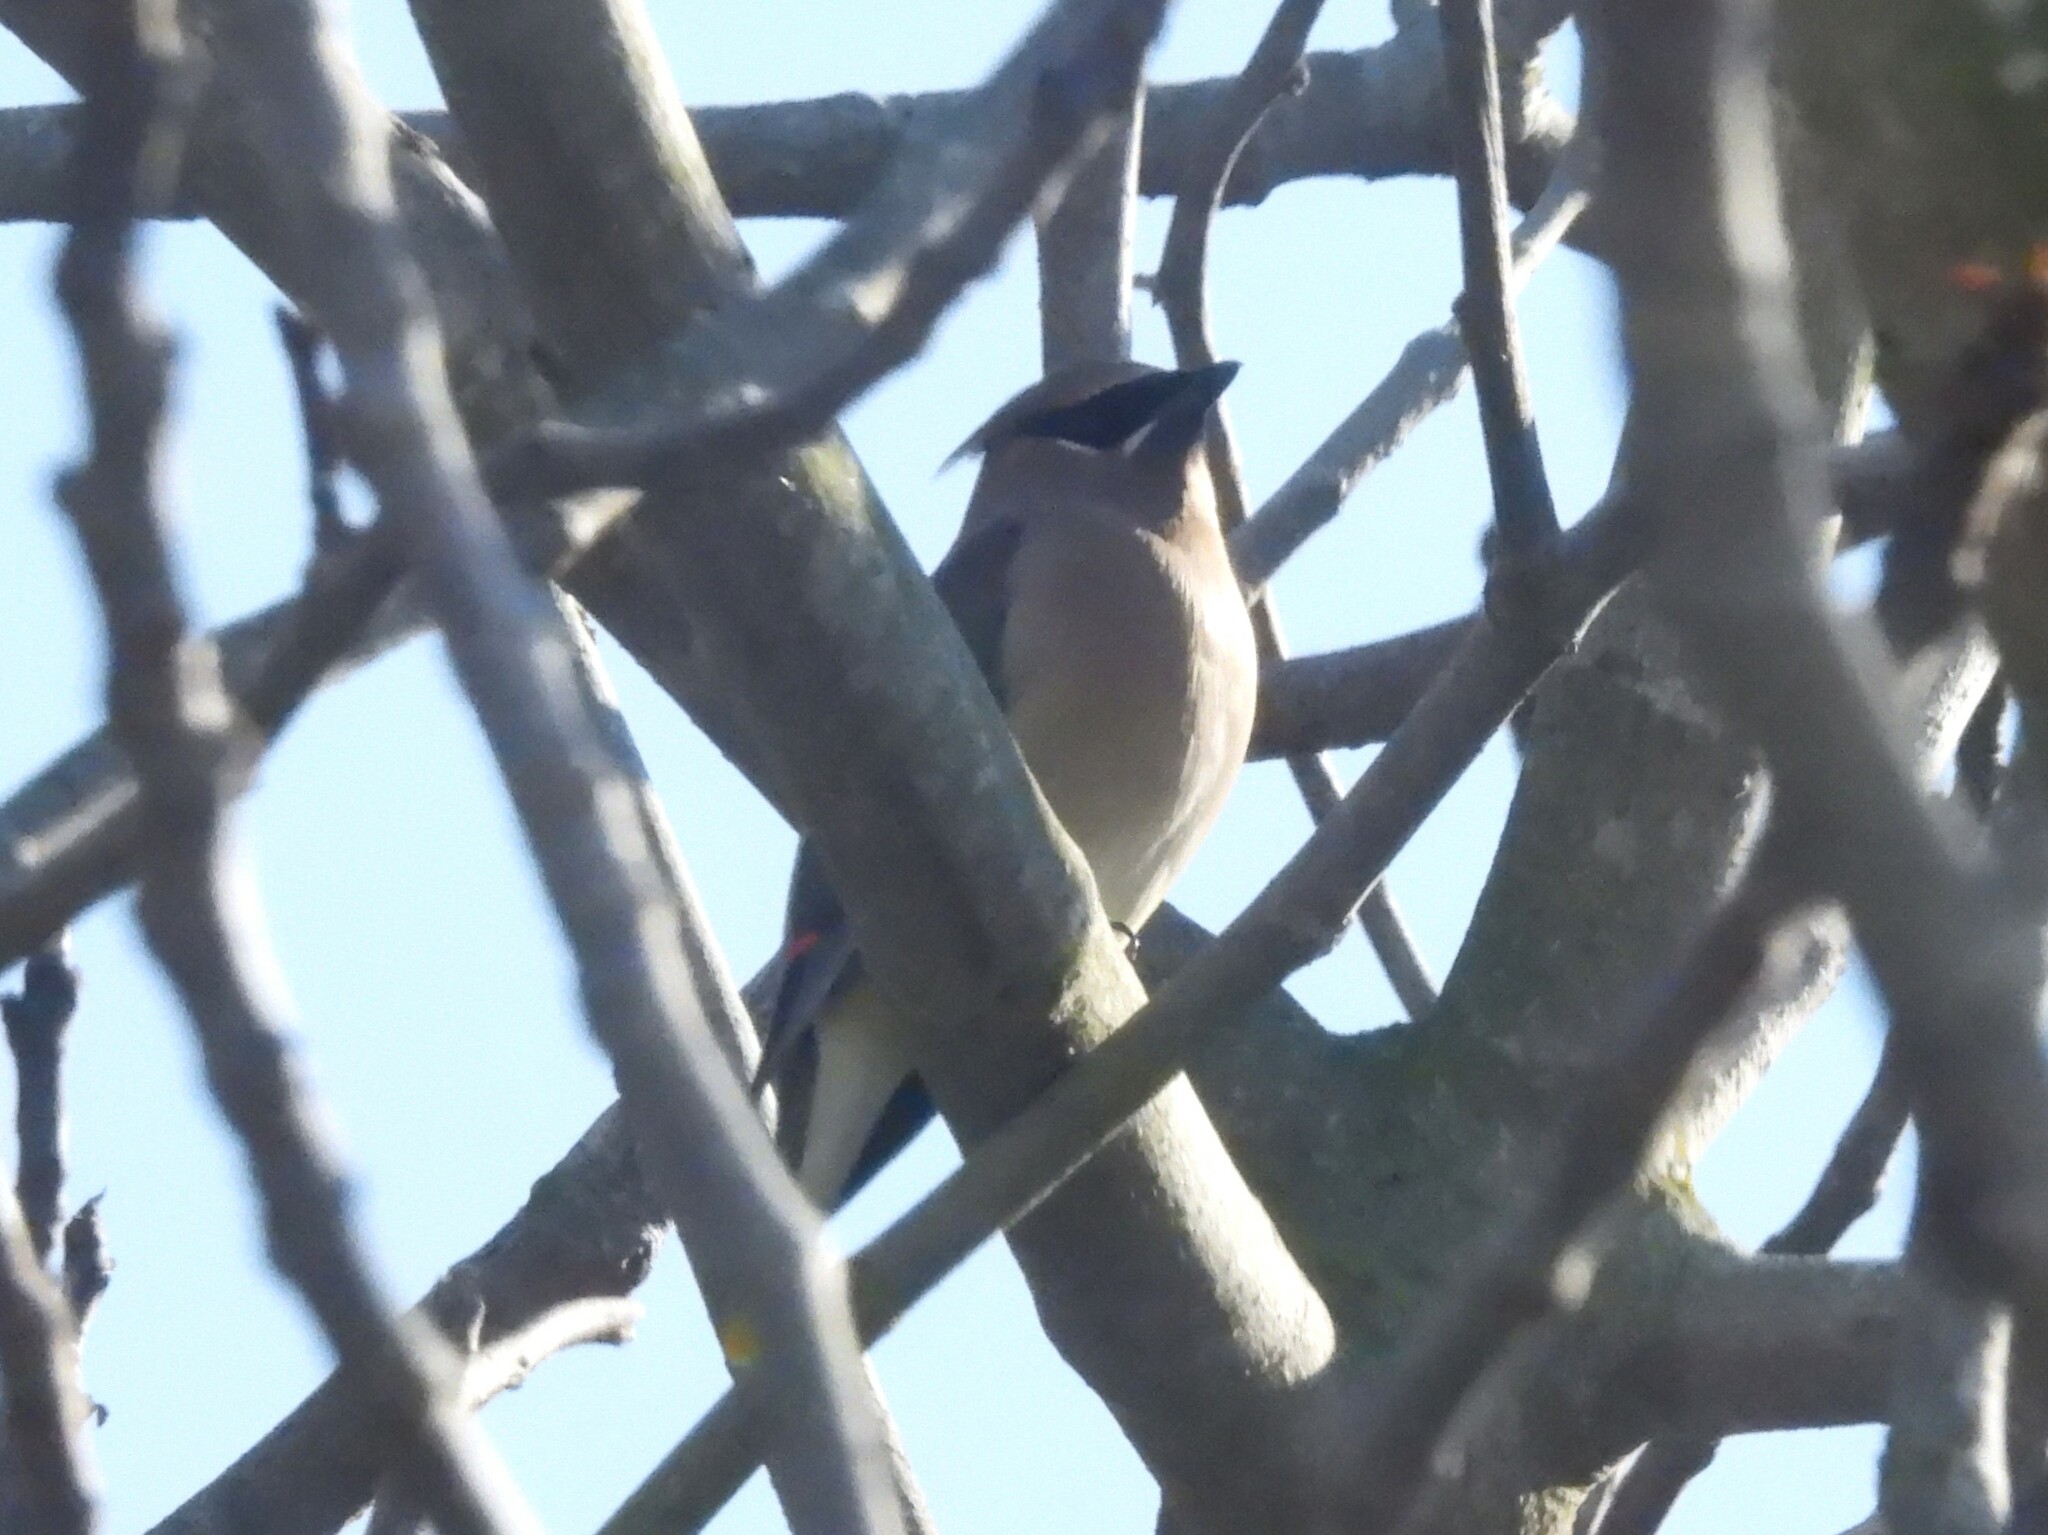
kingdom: Animalia
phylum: Chordata
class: Aves
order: Passeriformes
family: Bombycillidae
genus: Bombycilla
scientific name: Bombycilla cedrorum
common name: Cedar waxwing
